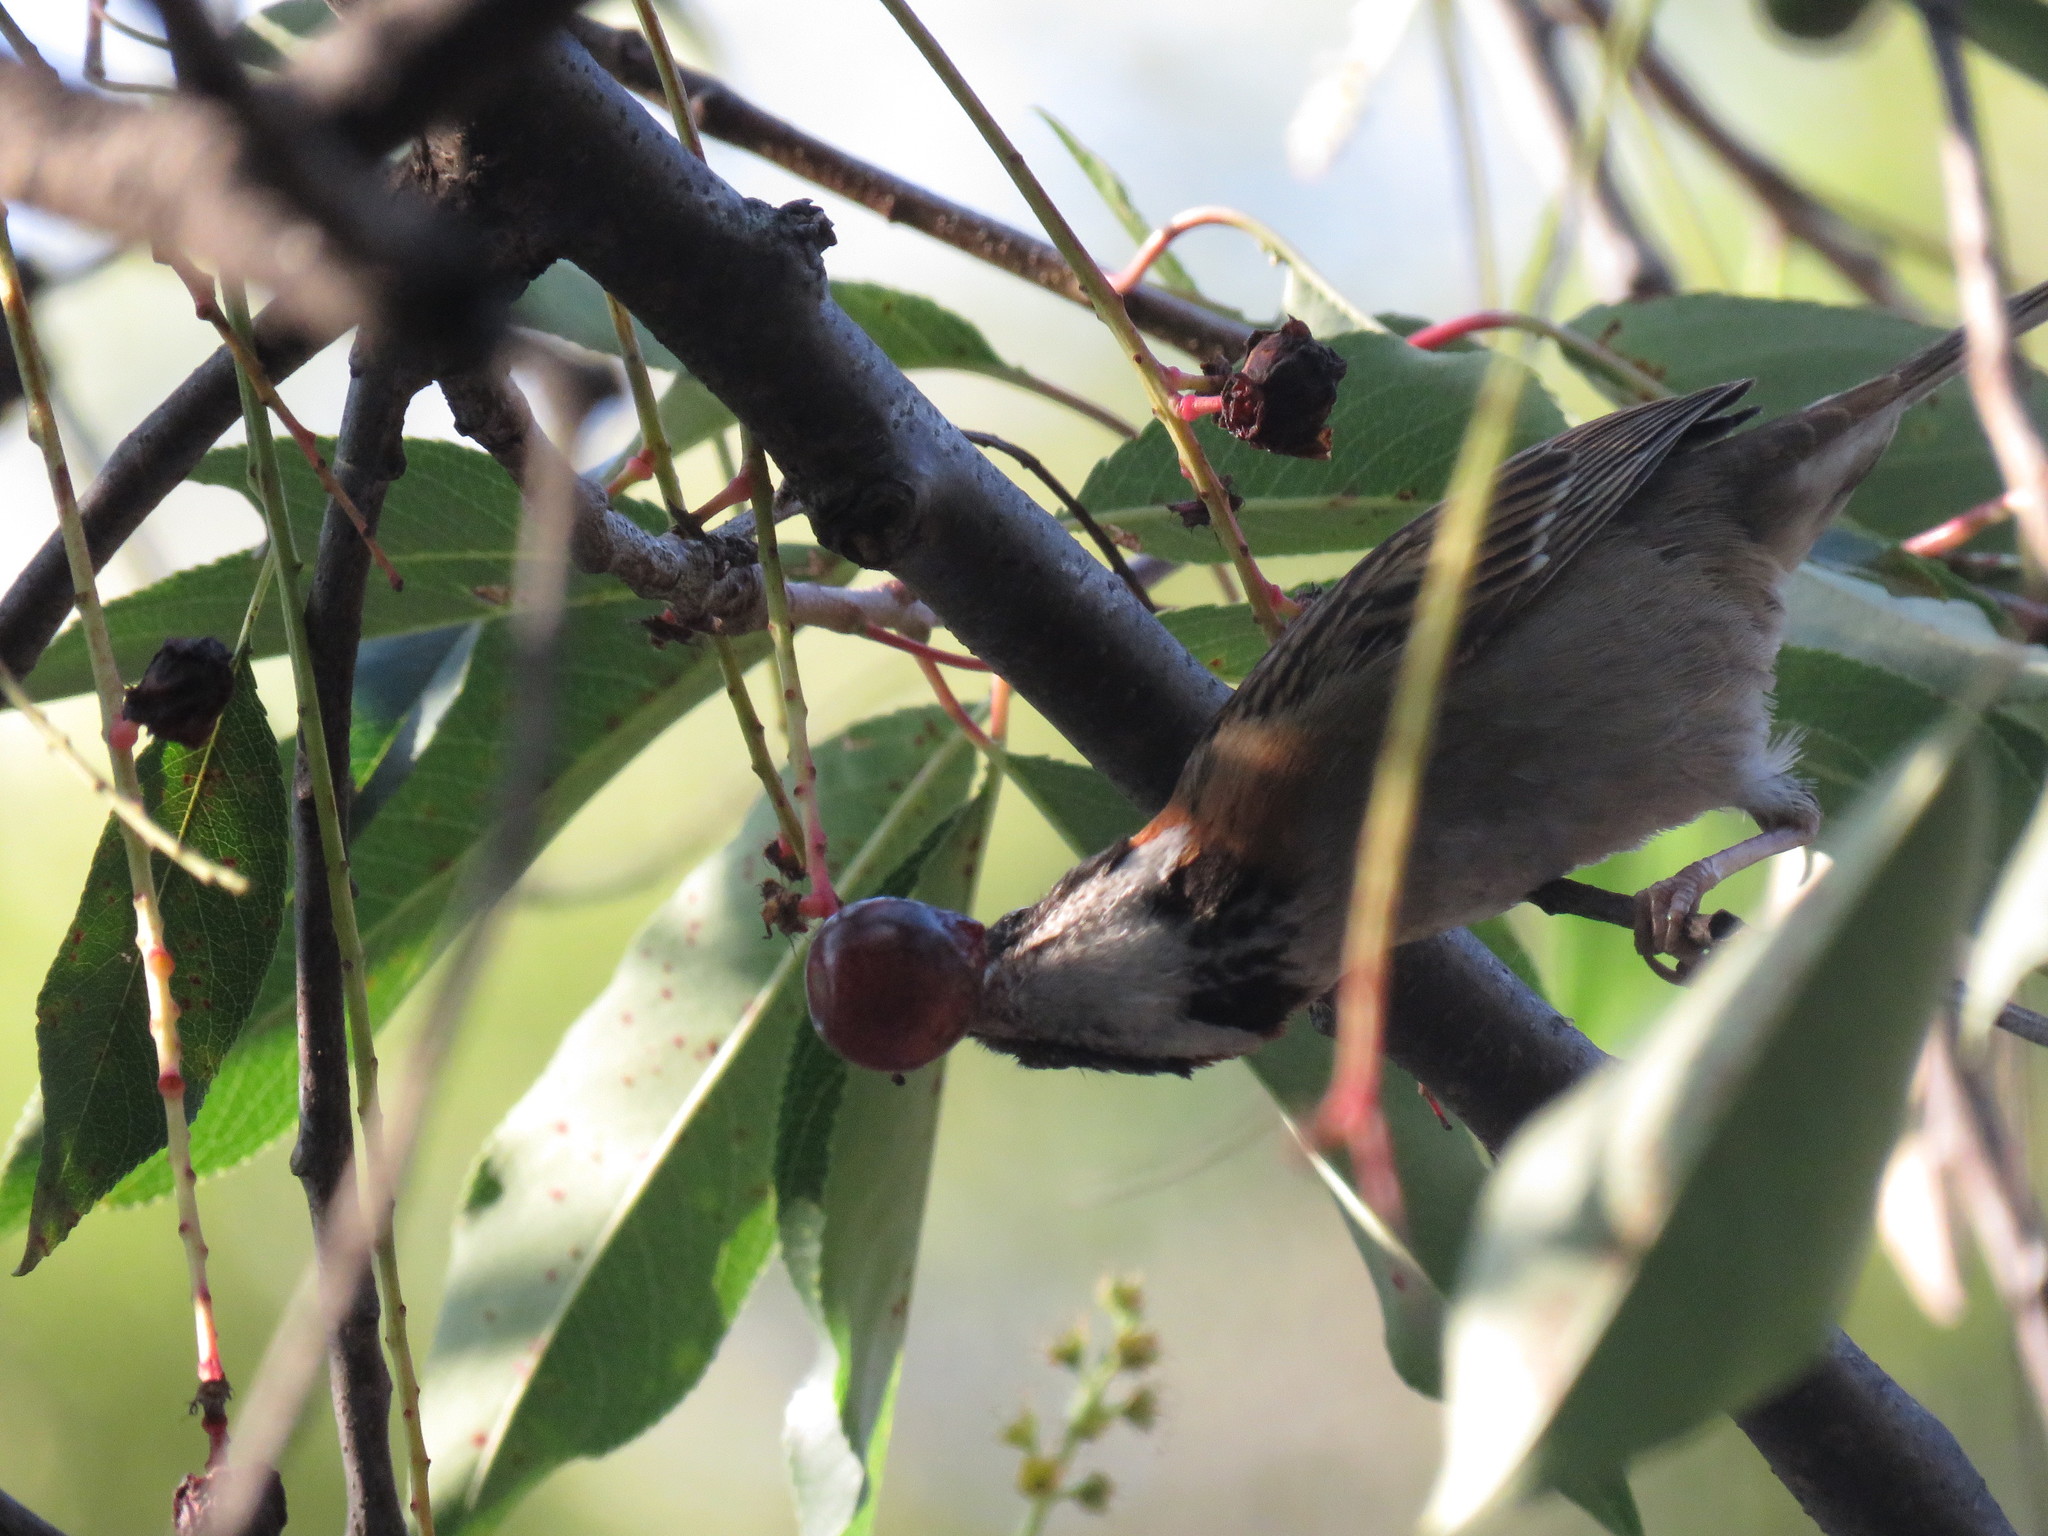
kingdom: Animalia
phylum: Chordata
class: Aves
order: Passeriformes
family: Passerellidae
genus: Zonotrichia
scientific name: Zonotrichia capensis
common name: Rufous-collared sparrow
